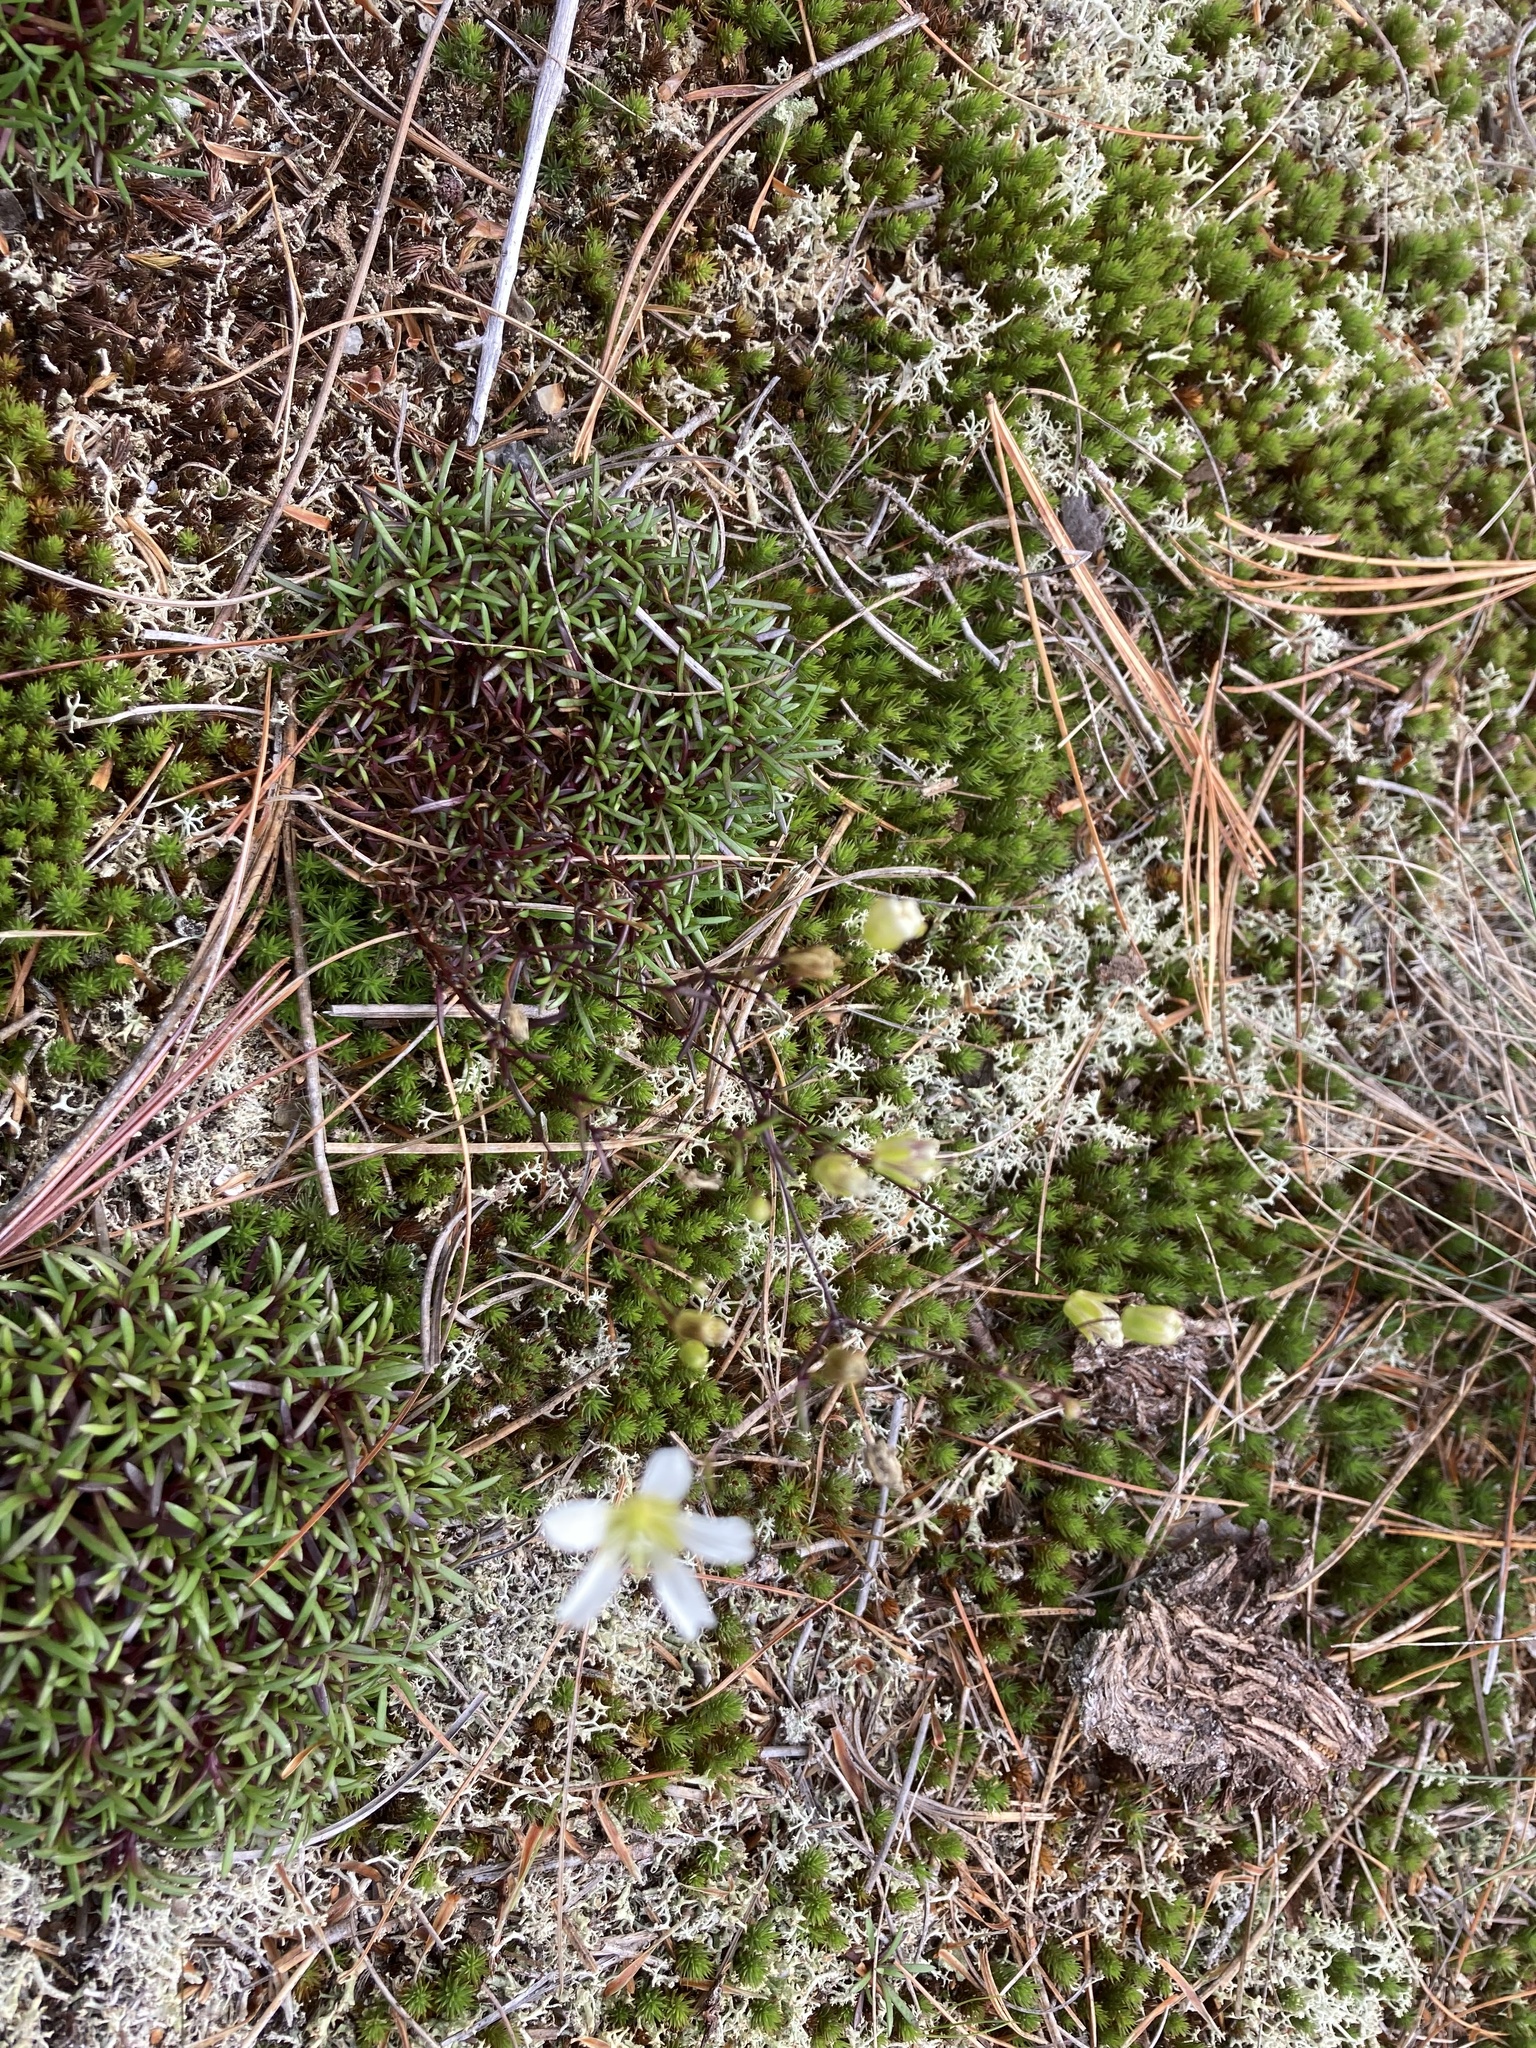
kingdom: Plantae
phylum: Tracheophyta
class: Magnoliopsida
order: Caryophyllales
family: Caryophyllaceae
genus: Geocarpon
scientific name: Geocarpon groenlandicum
